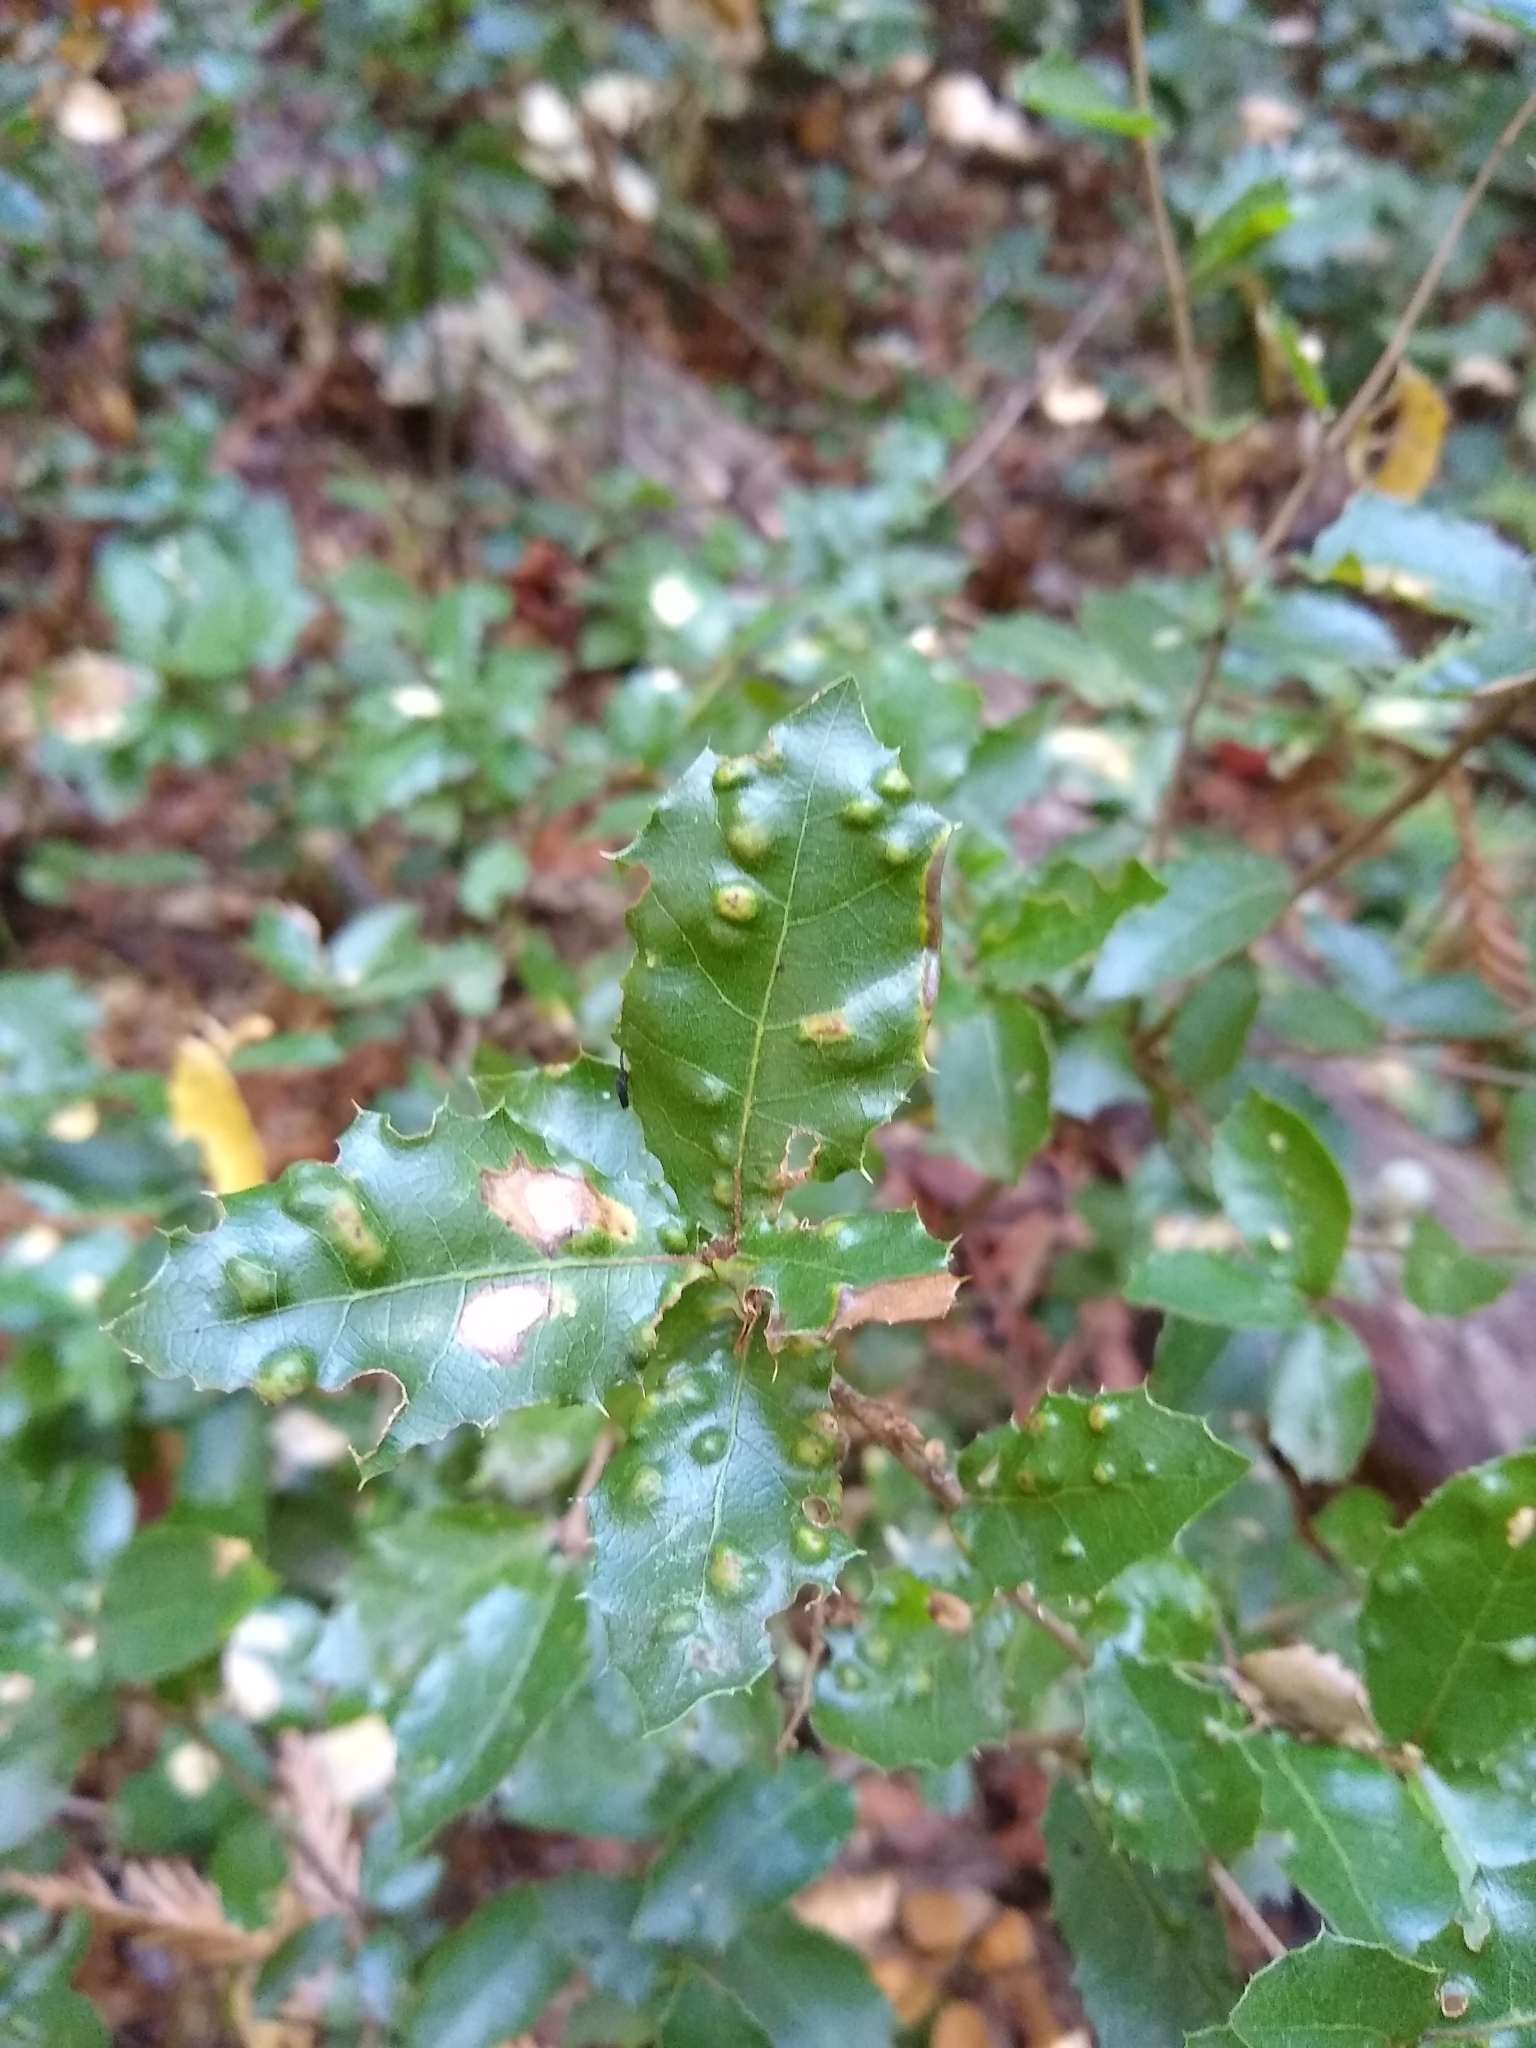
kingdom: Animalia
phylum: Arthropoda
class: Arachnida
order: Trombidiformes
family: Eriophyidae
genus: Aceria
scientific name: Aceria
